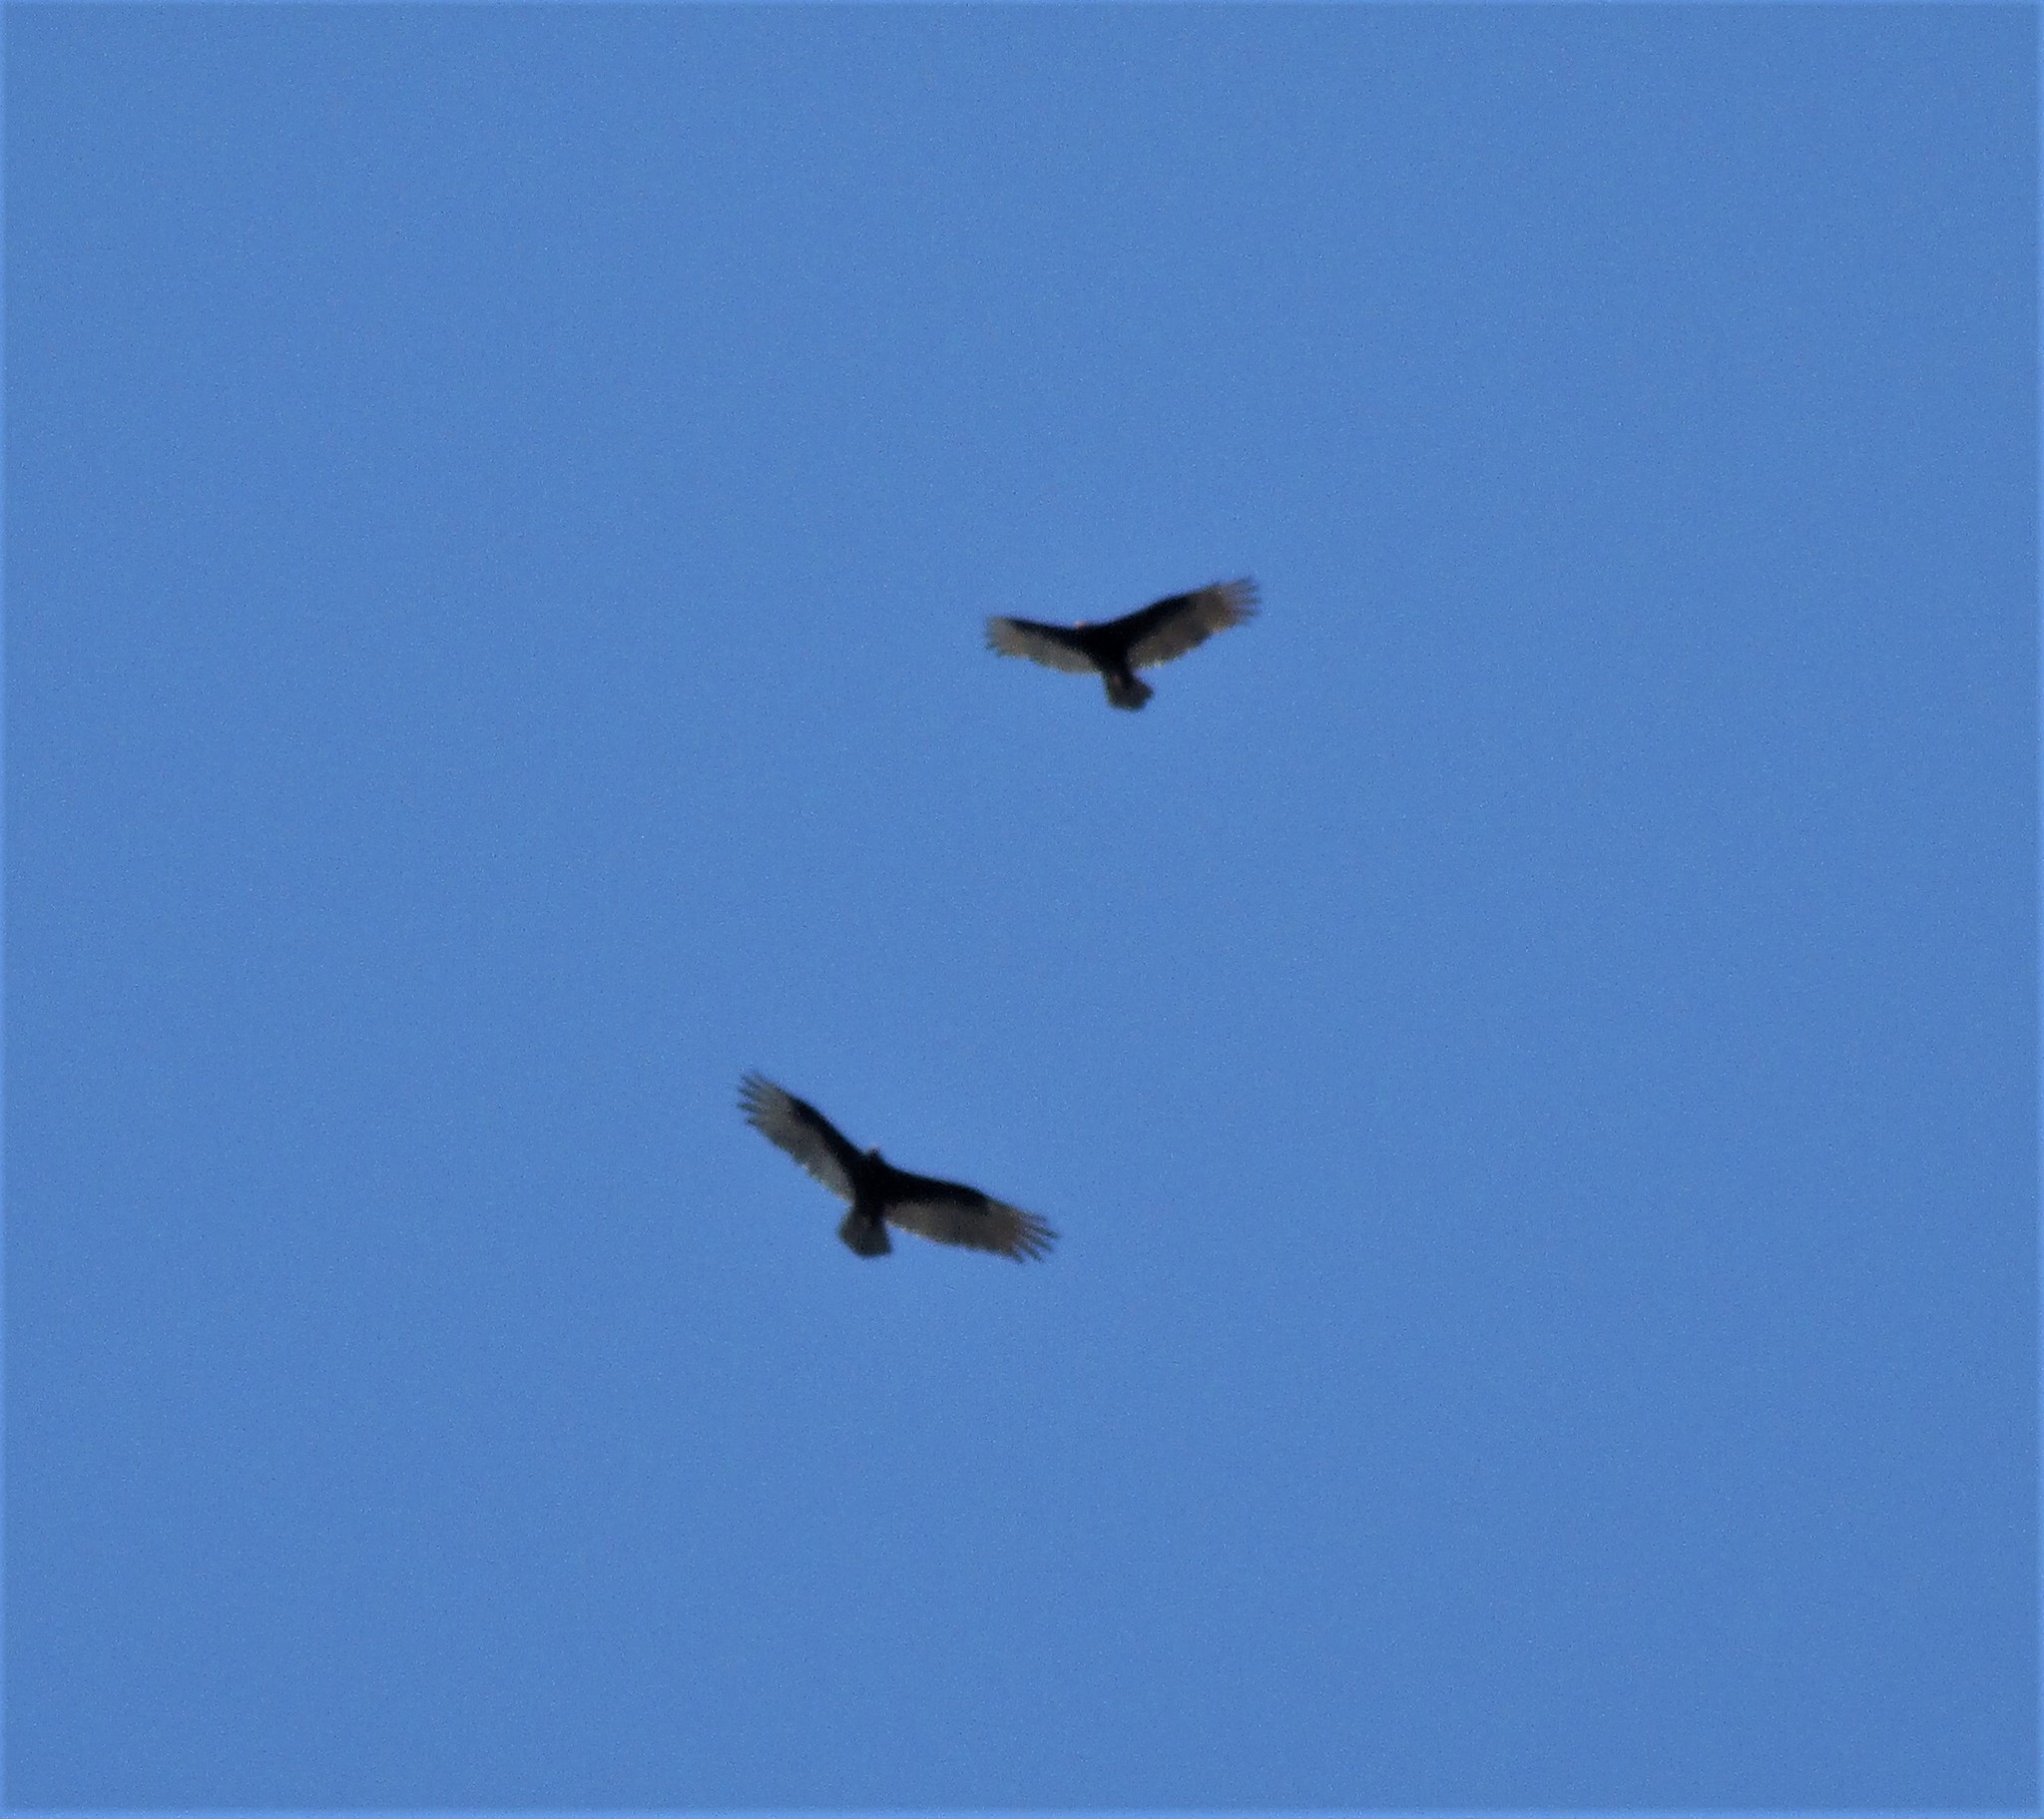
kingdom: Animalia
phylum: Chordata
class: Aves
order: Accipitriformes
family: Cathartidae
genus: Cathartes
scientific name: Cathartes aura
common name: Turkey vulture
